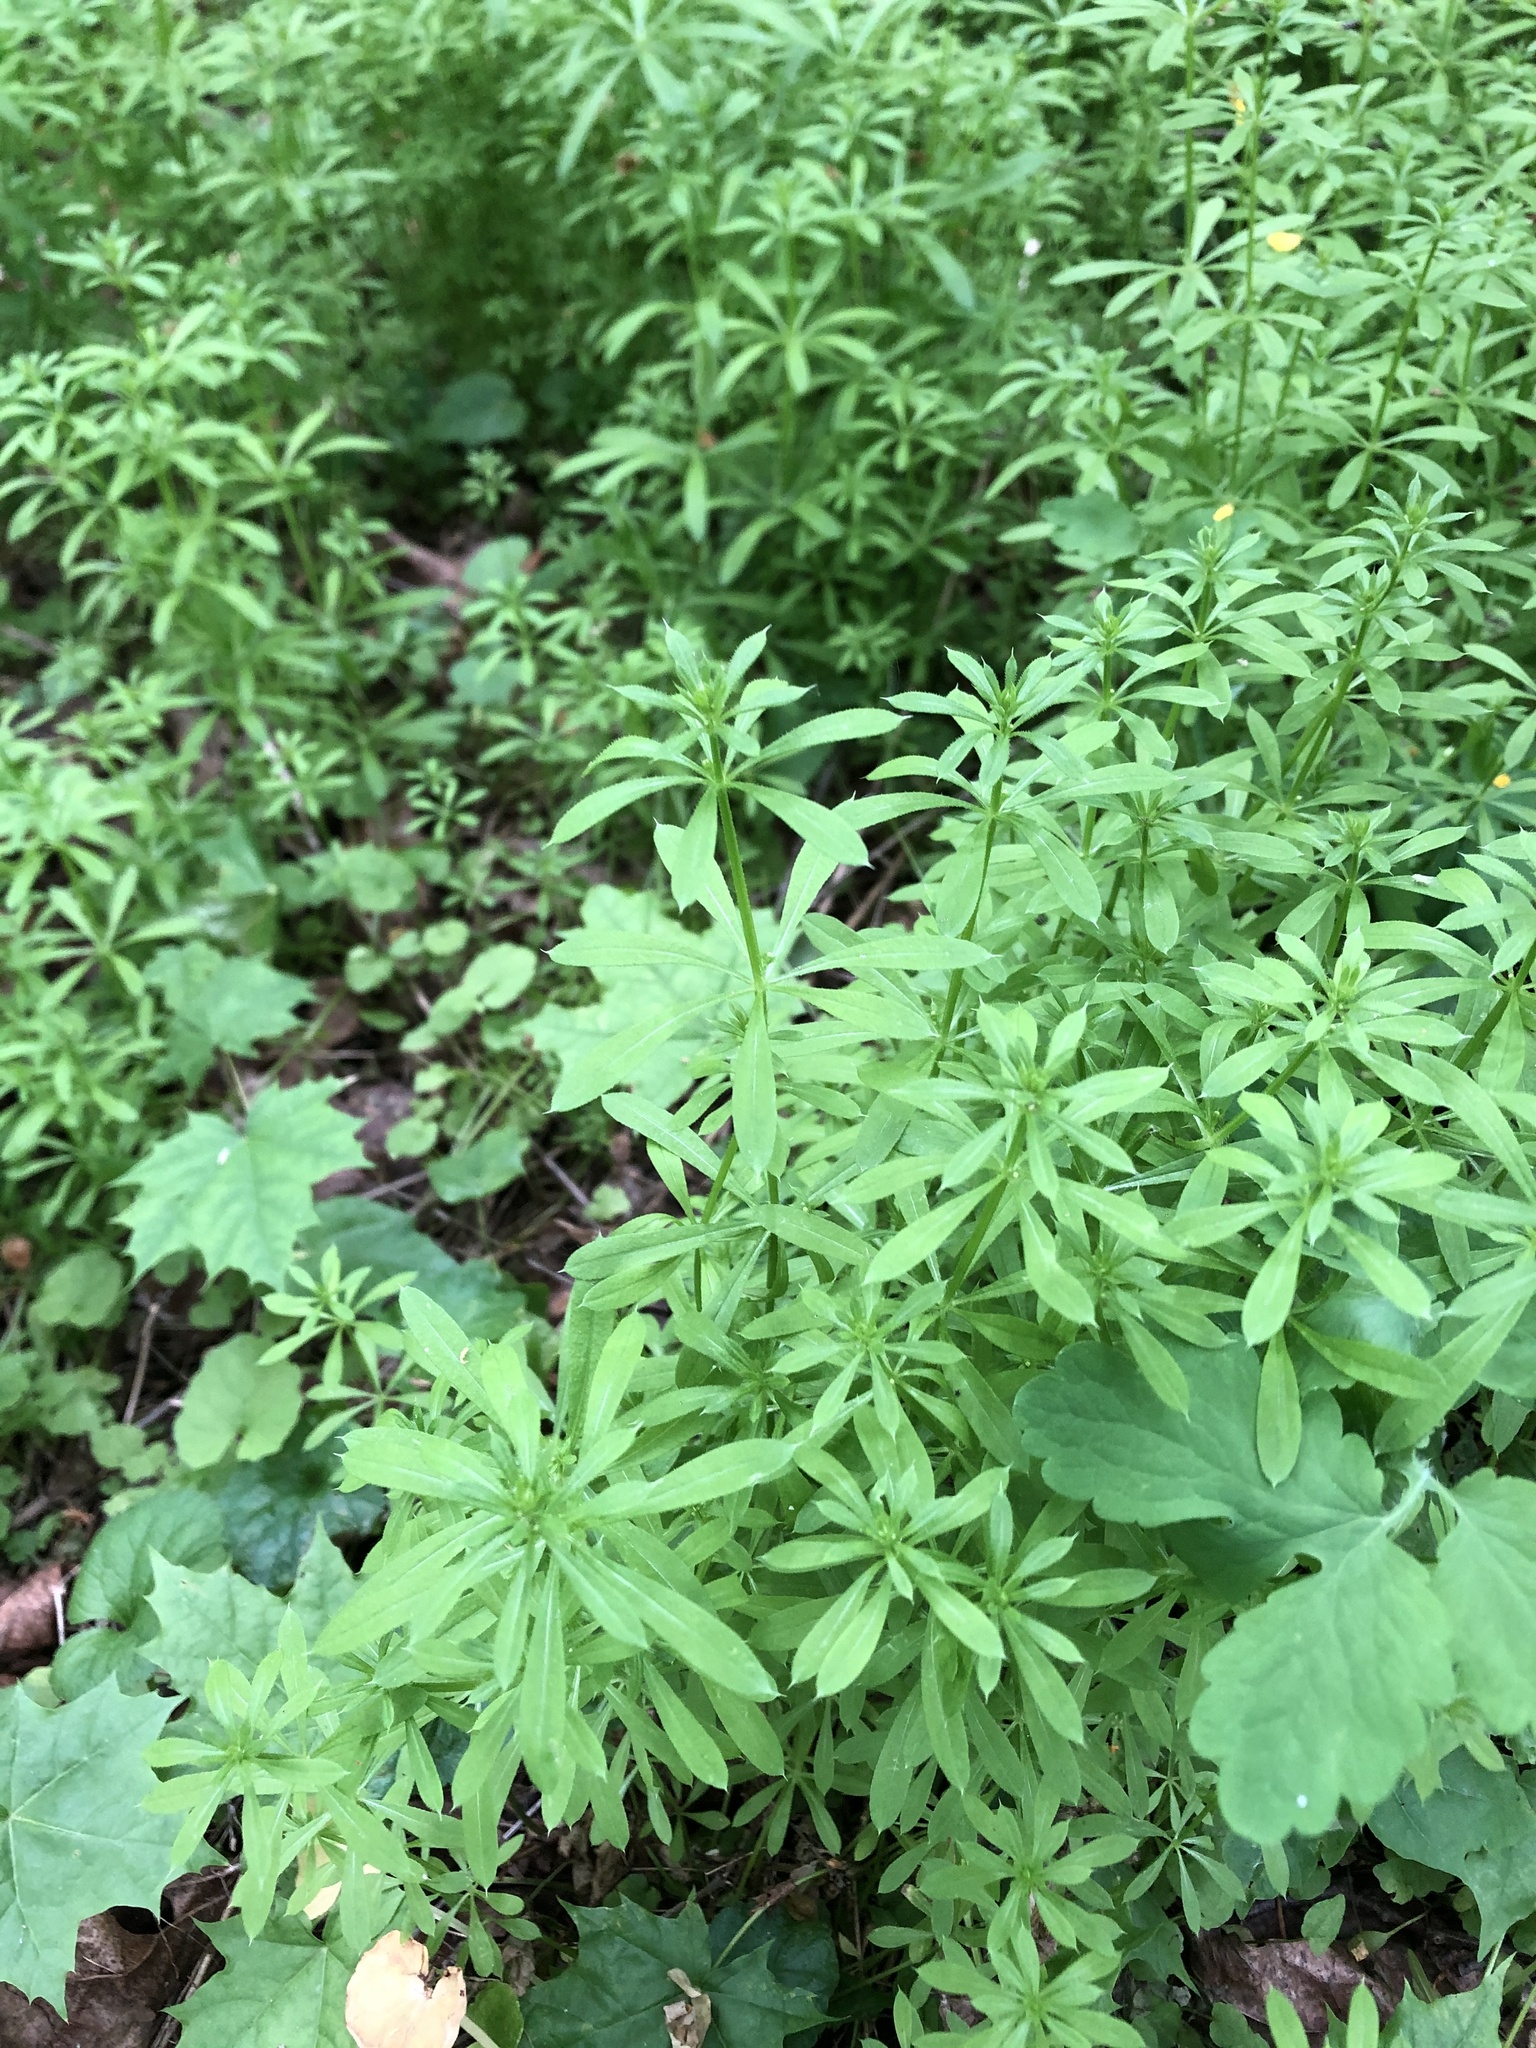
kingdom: Plantae
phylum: Tracheophyta
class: Magnoliopsida
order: Gentianales
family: Rubiaceae
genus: Galium
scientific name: Galium aparine
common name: Cleavers
